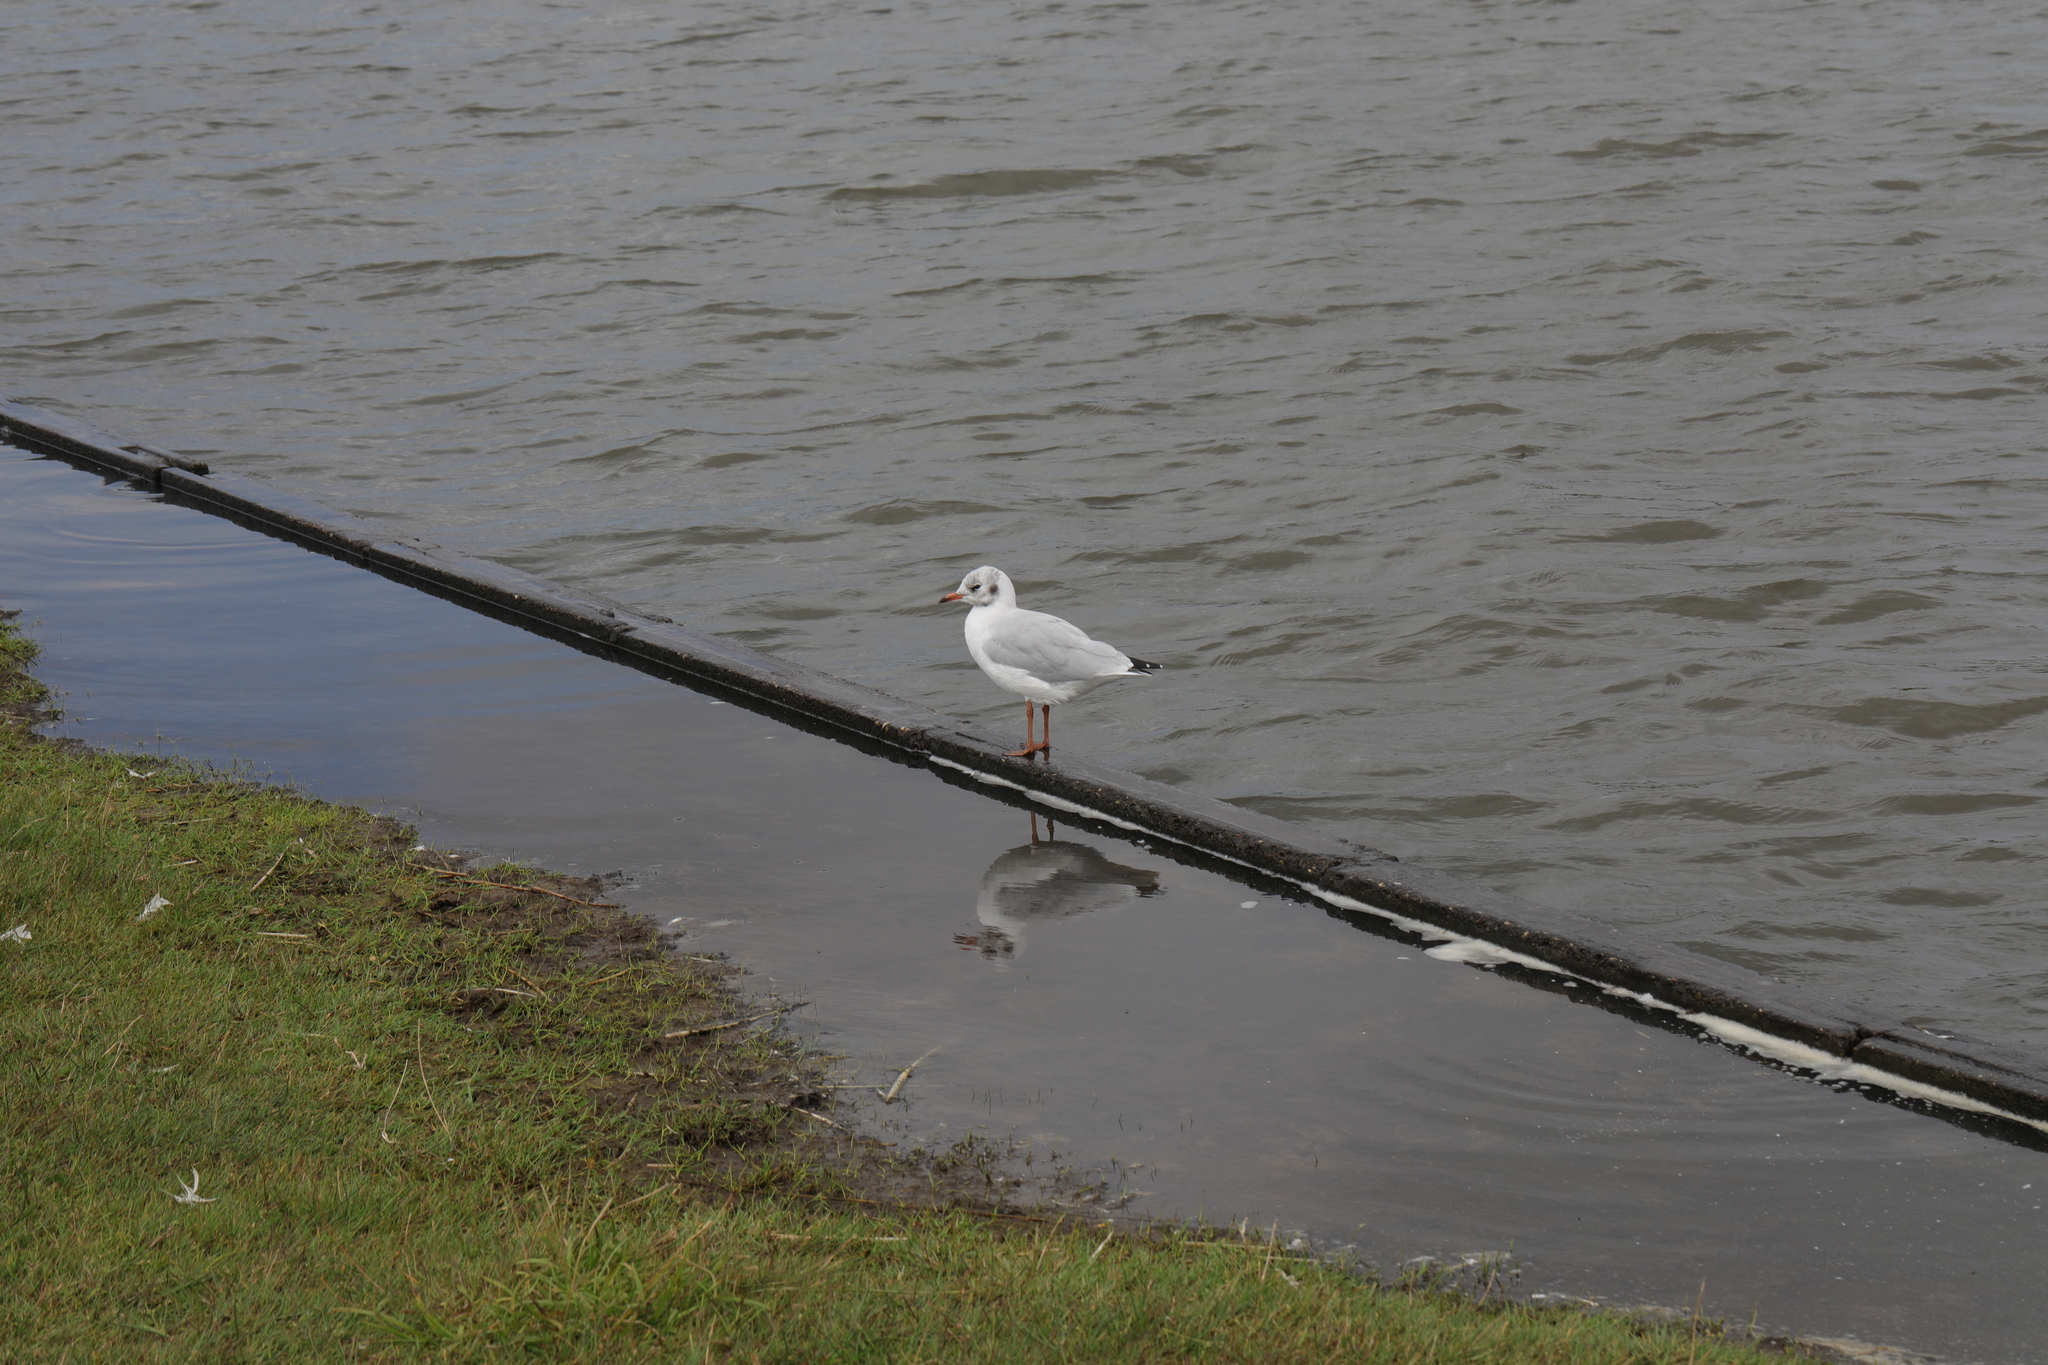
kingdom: Animalia
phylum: Chordata
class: Aves
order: Charadriiformes
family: Laridae
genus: Chroicocephalus
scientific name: Chroicocephalus ridibundus
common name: Black-headed gull
